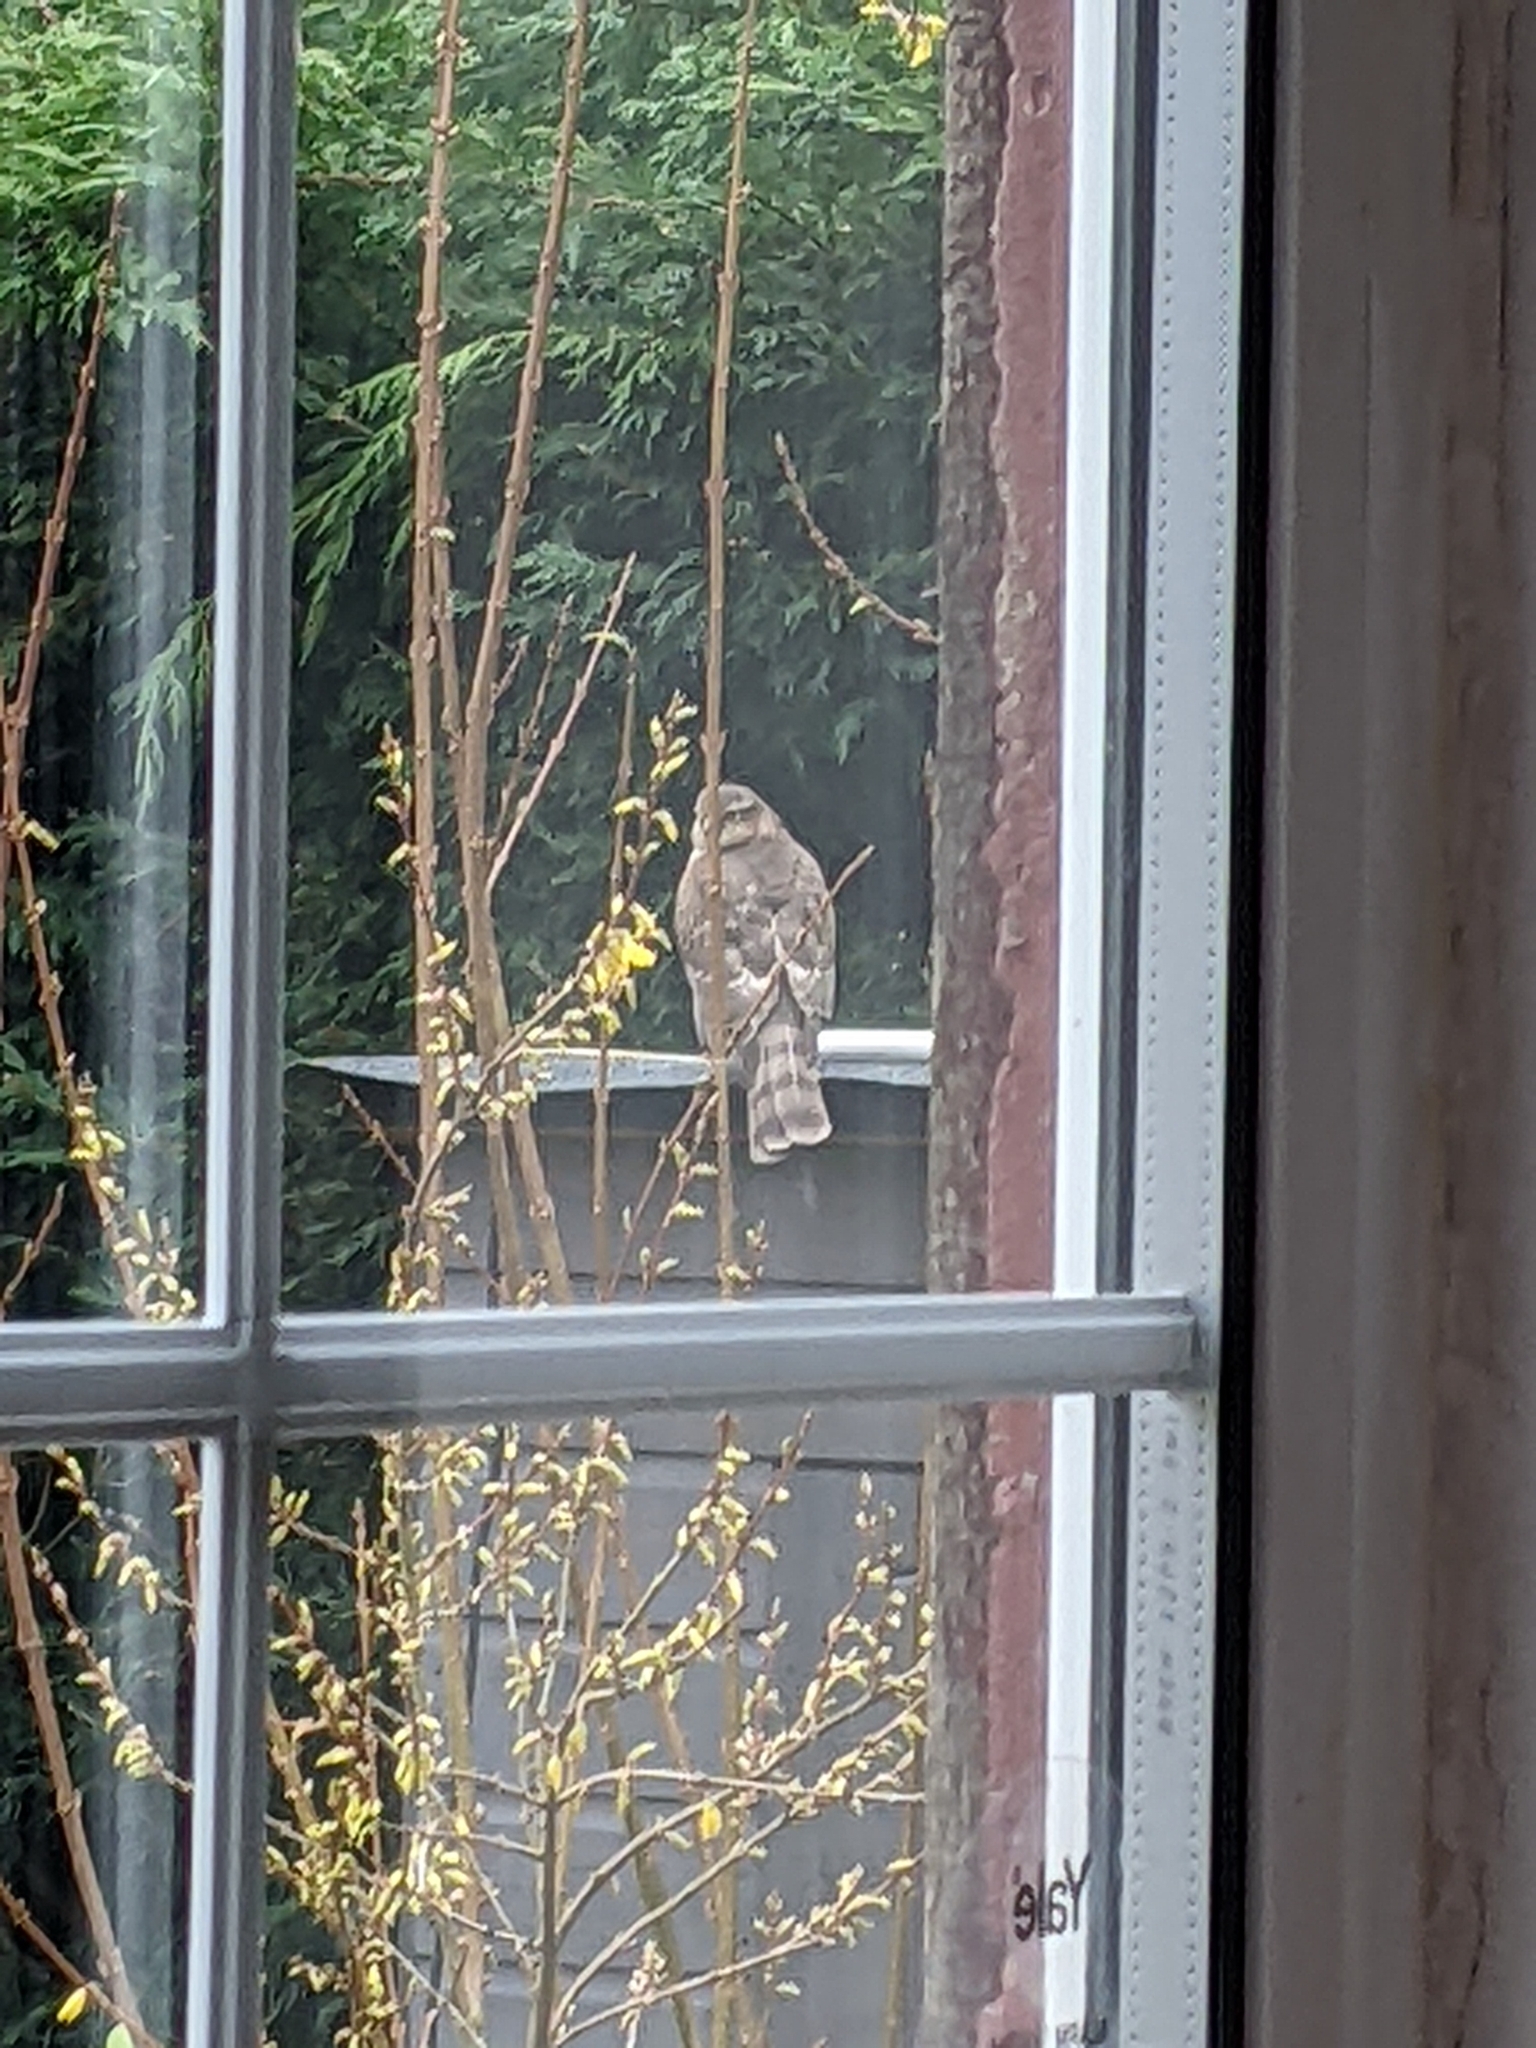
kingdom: Animalia
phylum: Chordata
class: Aves
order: Accipitriformes
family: Accipitridae
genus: Accipiter
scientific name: Accipiter nisus
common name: Eurasian sparrowhawk
